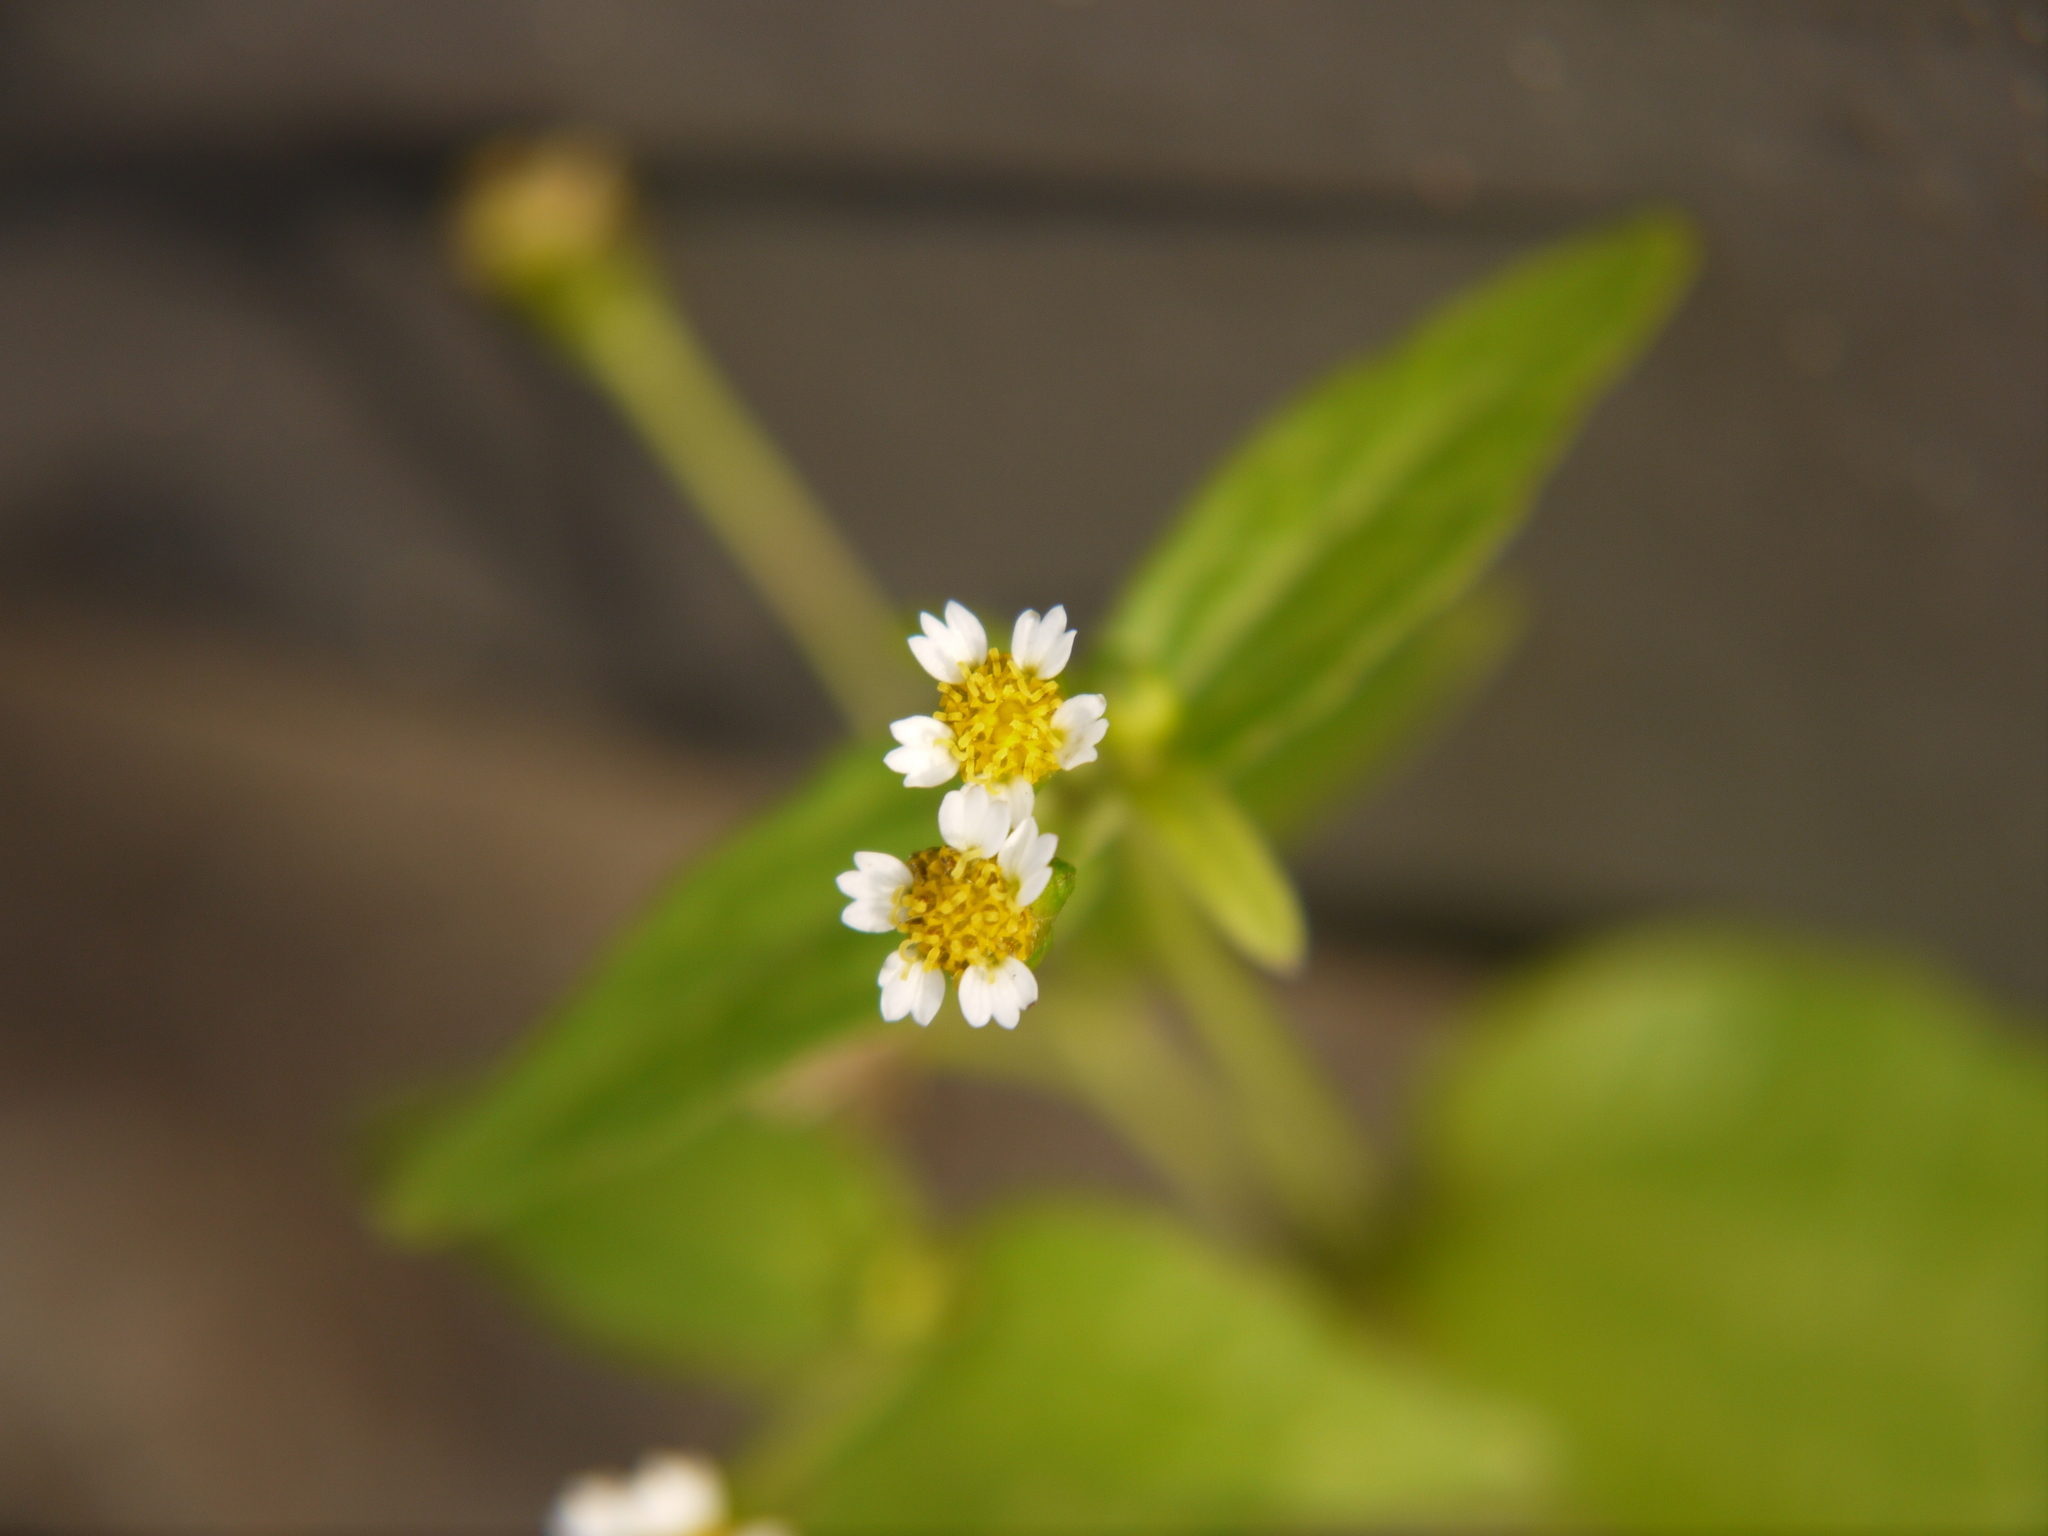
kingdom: Plantae
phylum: Tracheophyta
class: Magnoliopsida
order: Asterales
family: Asteraceae
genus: Galinsoga
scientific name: Galinsoga quadriradiata
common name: Shaggy soldier
